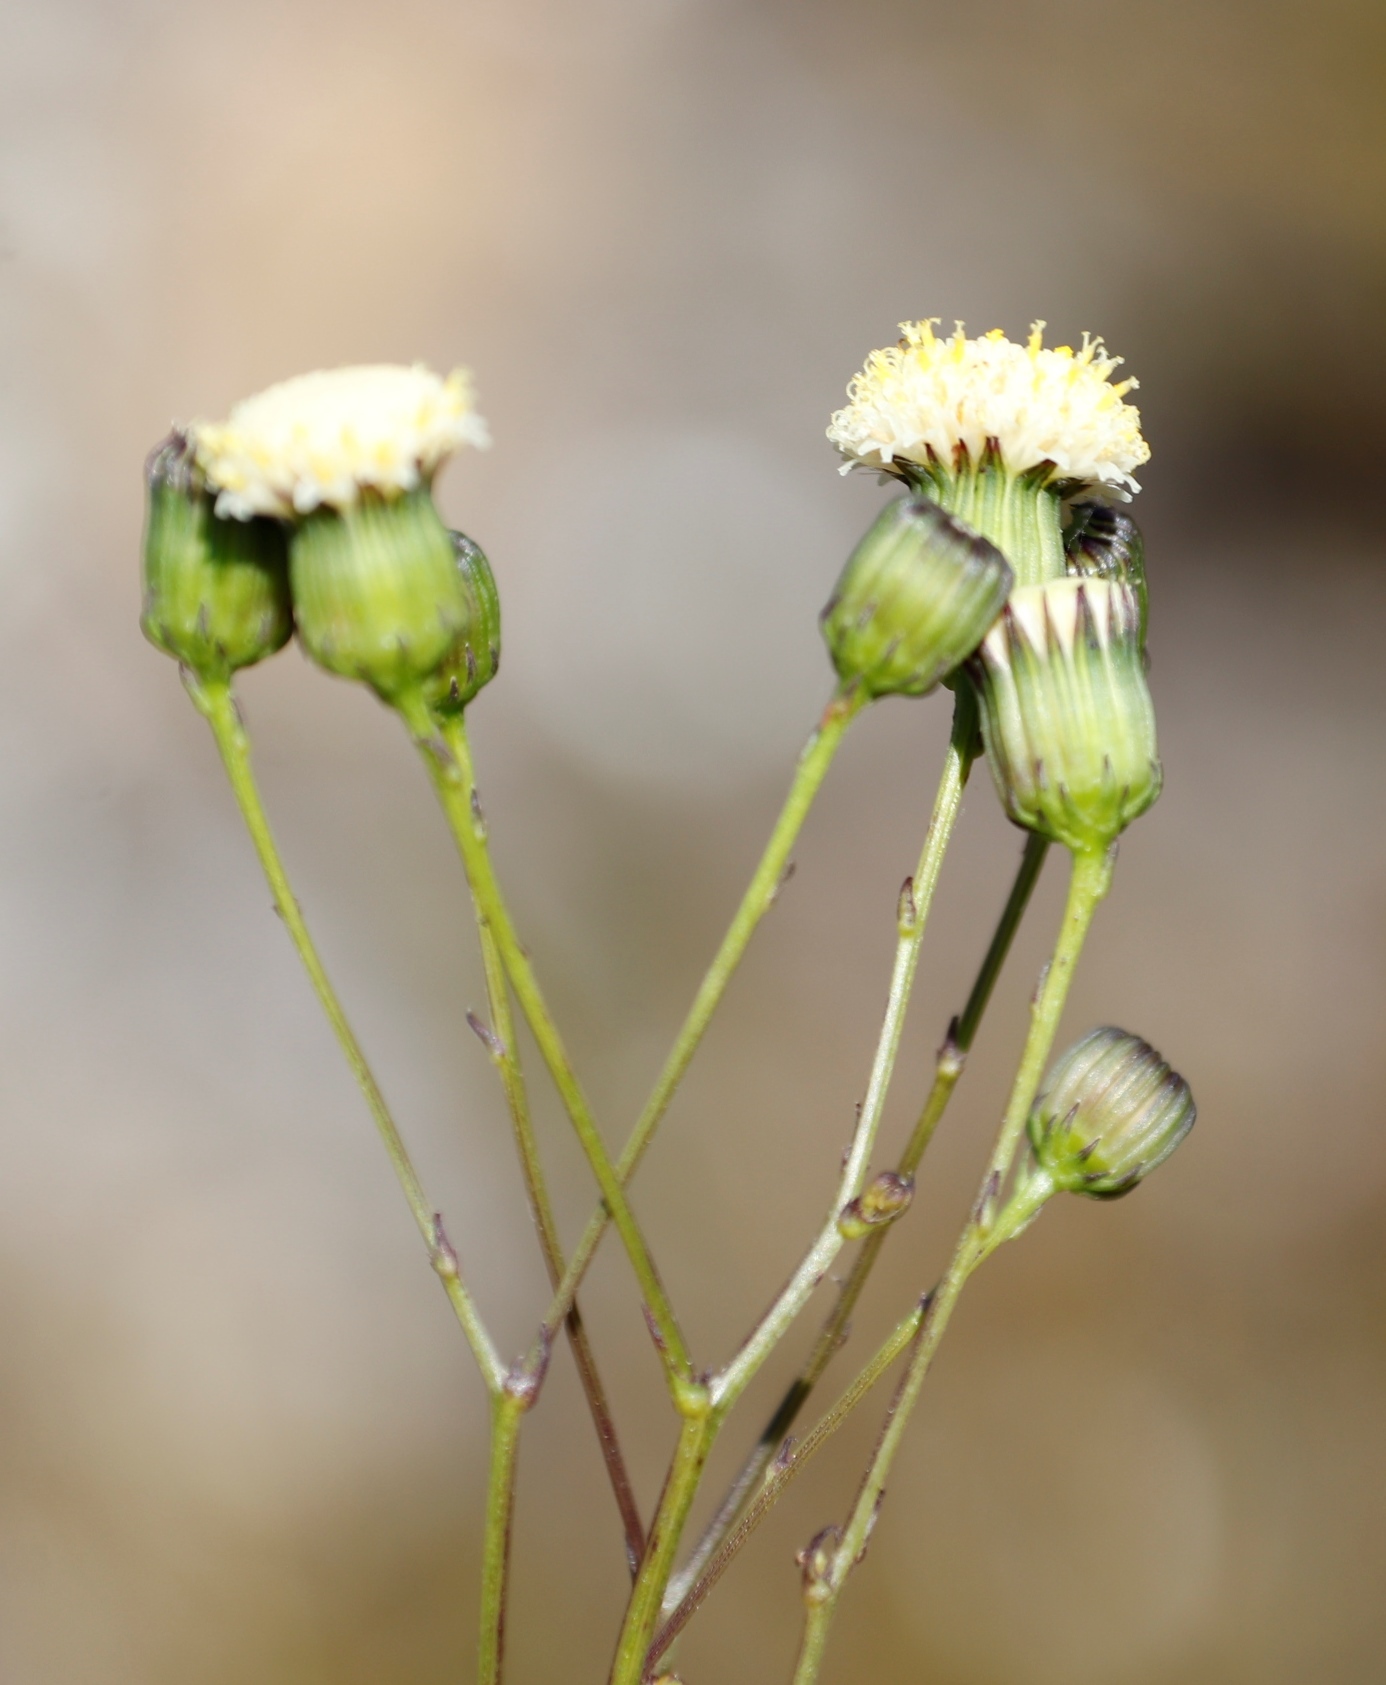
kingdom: Plantae
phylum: Tracheophyta
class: Magnoliopsida
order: Asterales
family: Asteraceae
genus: Senecio
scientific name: Senecio paniculatus
